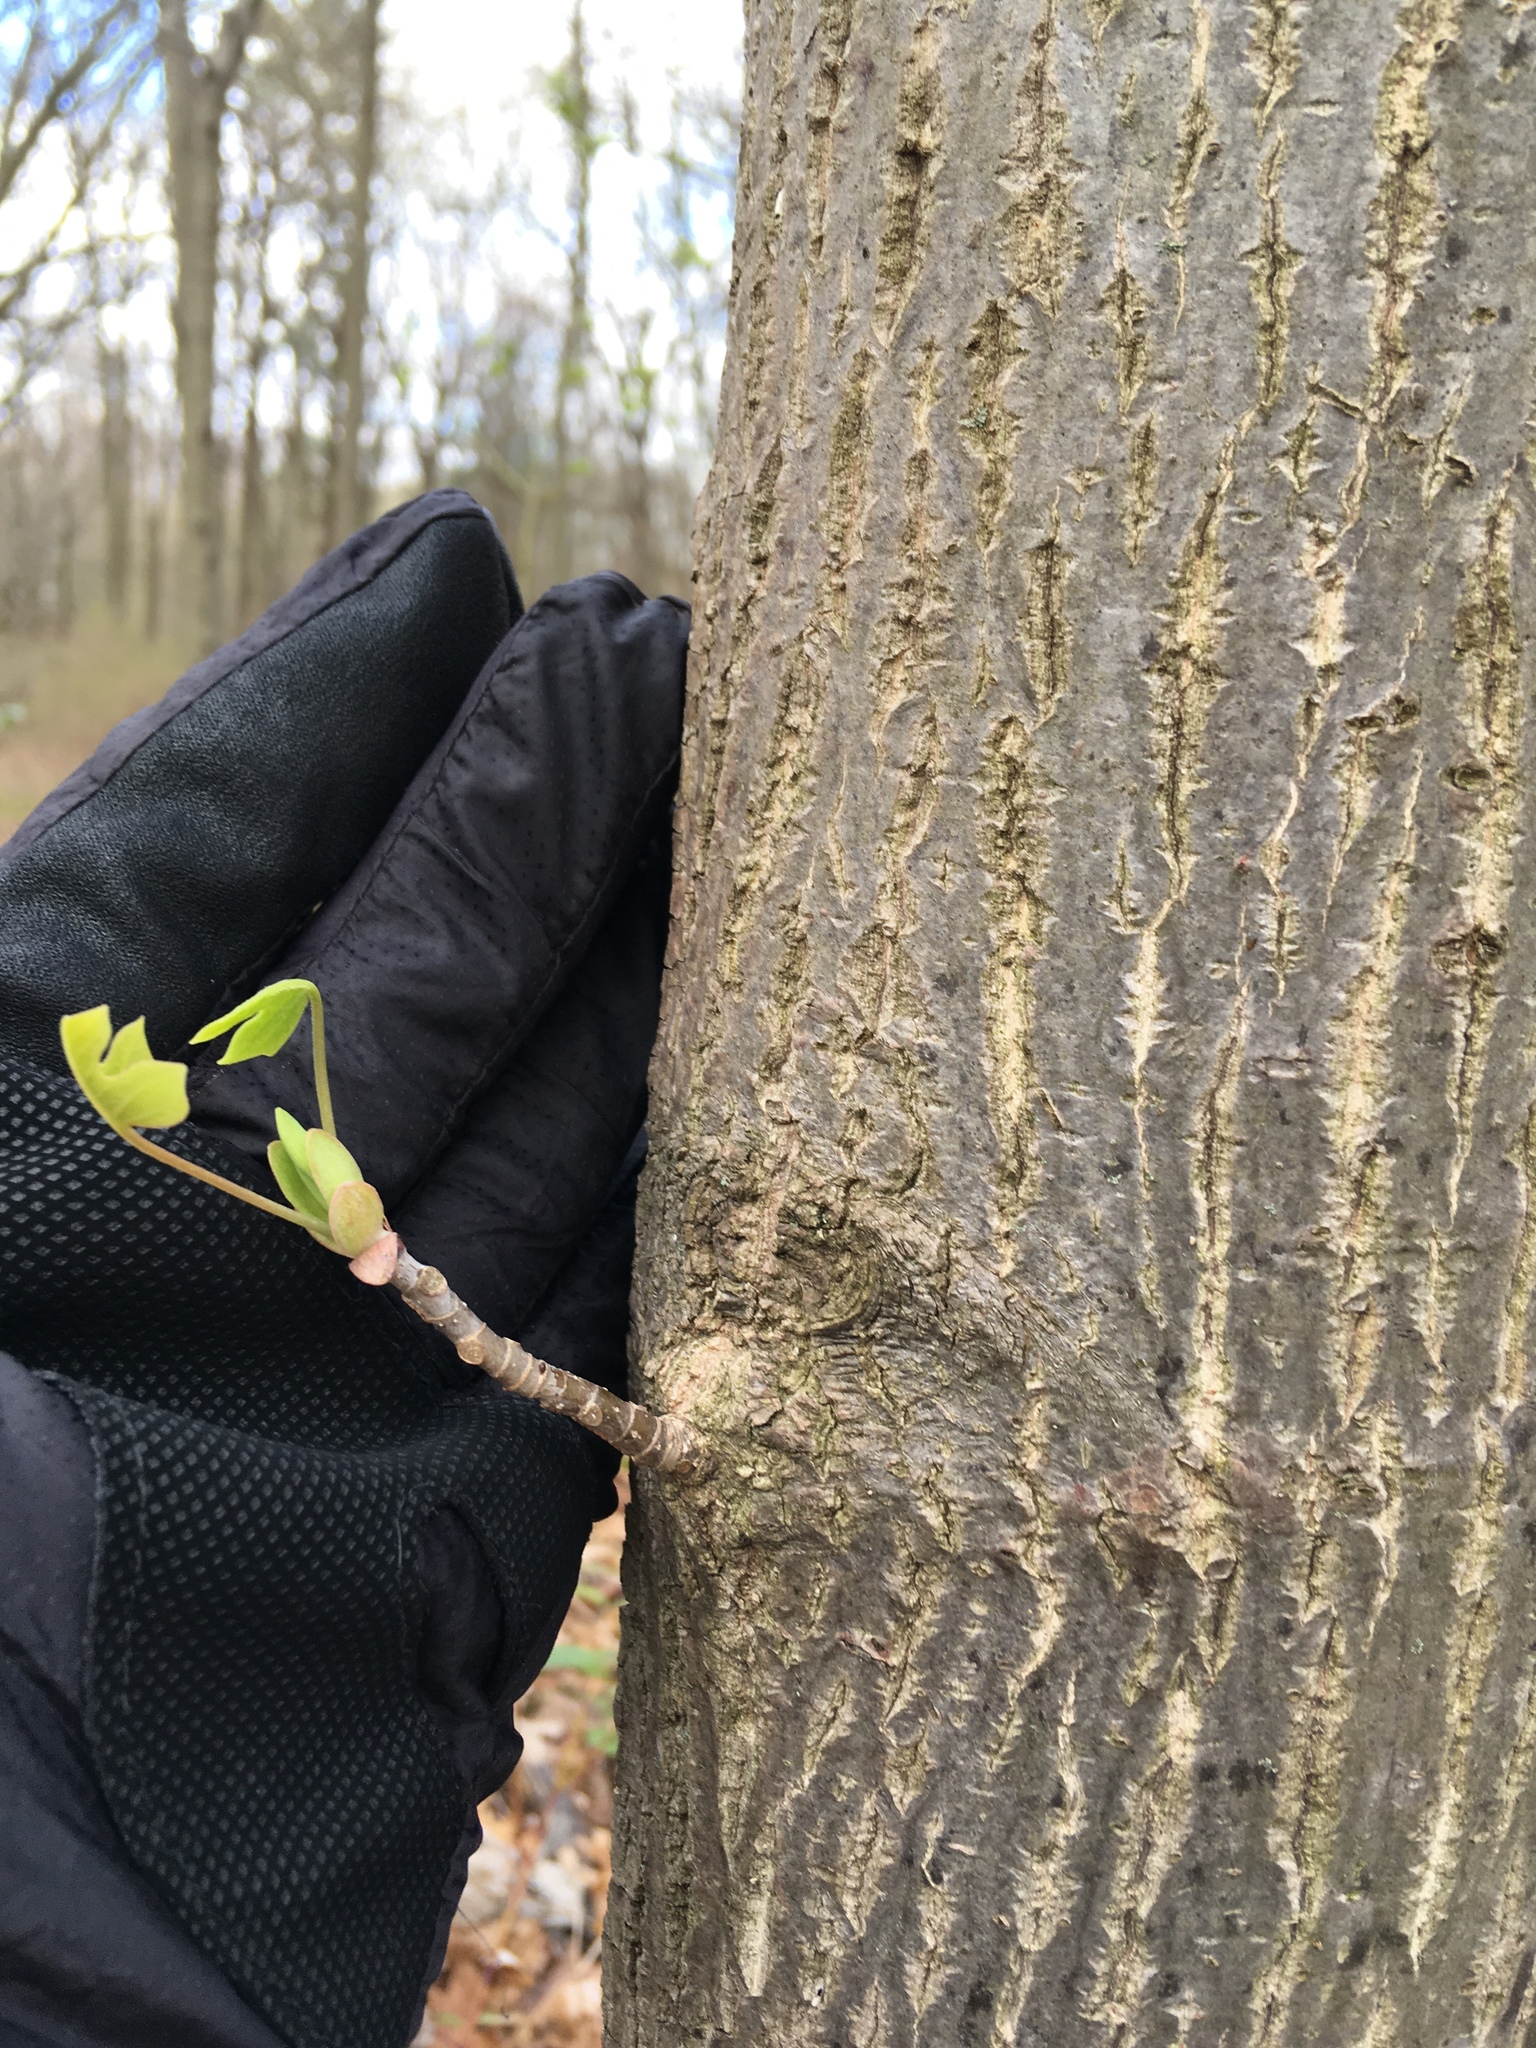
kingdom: Plantae
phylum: Tracheophyta
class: Magnoliopsida
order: Magnoliales
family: Magnoliaceae
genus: Liriodendron
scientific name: Liriodendron tulipifera
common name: Tulip tree
